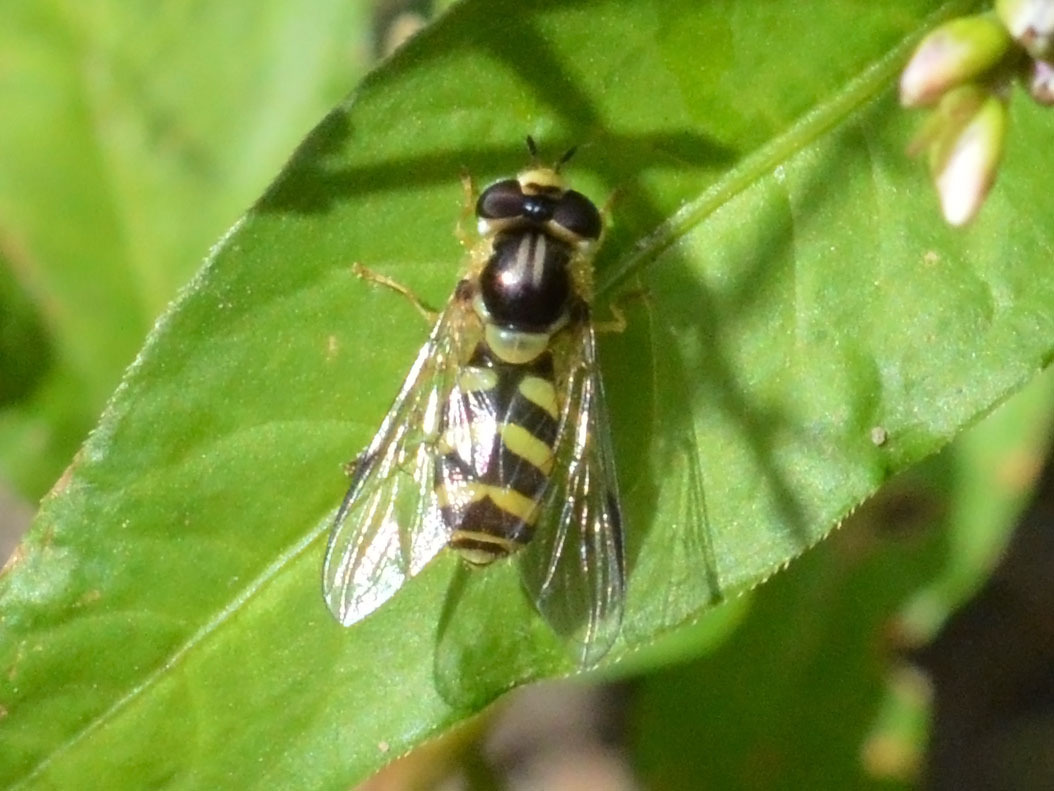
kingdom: Animalia
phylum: Arthropoda
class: Insecta
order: Diptera
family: Syrphidae
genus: Dasysyrphus
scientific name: Dasysyrphus albostriatus
